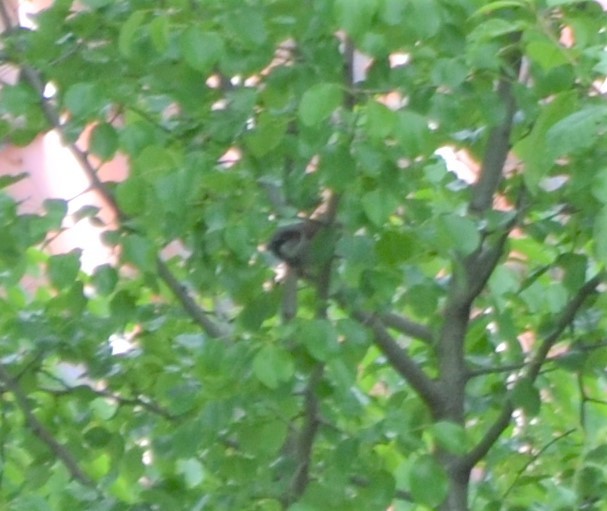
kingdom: Animalia
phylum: Chordata
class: Aves
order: Passeriformes
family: Passeridae
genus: Passer
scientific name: Passer domesticus
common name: House sparrow
